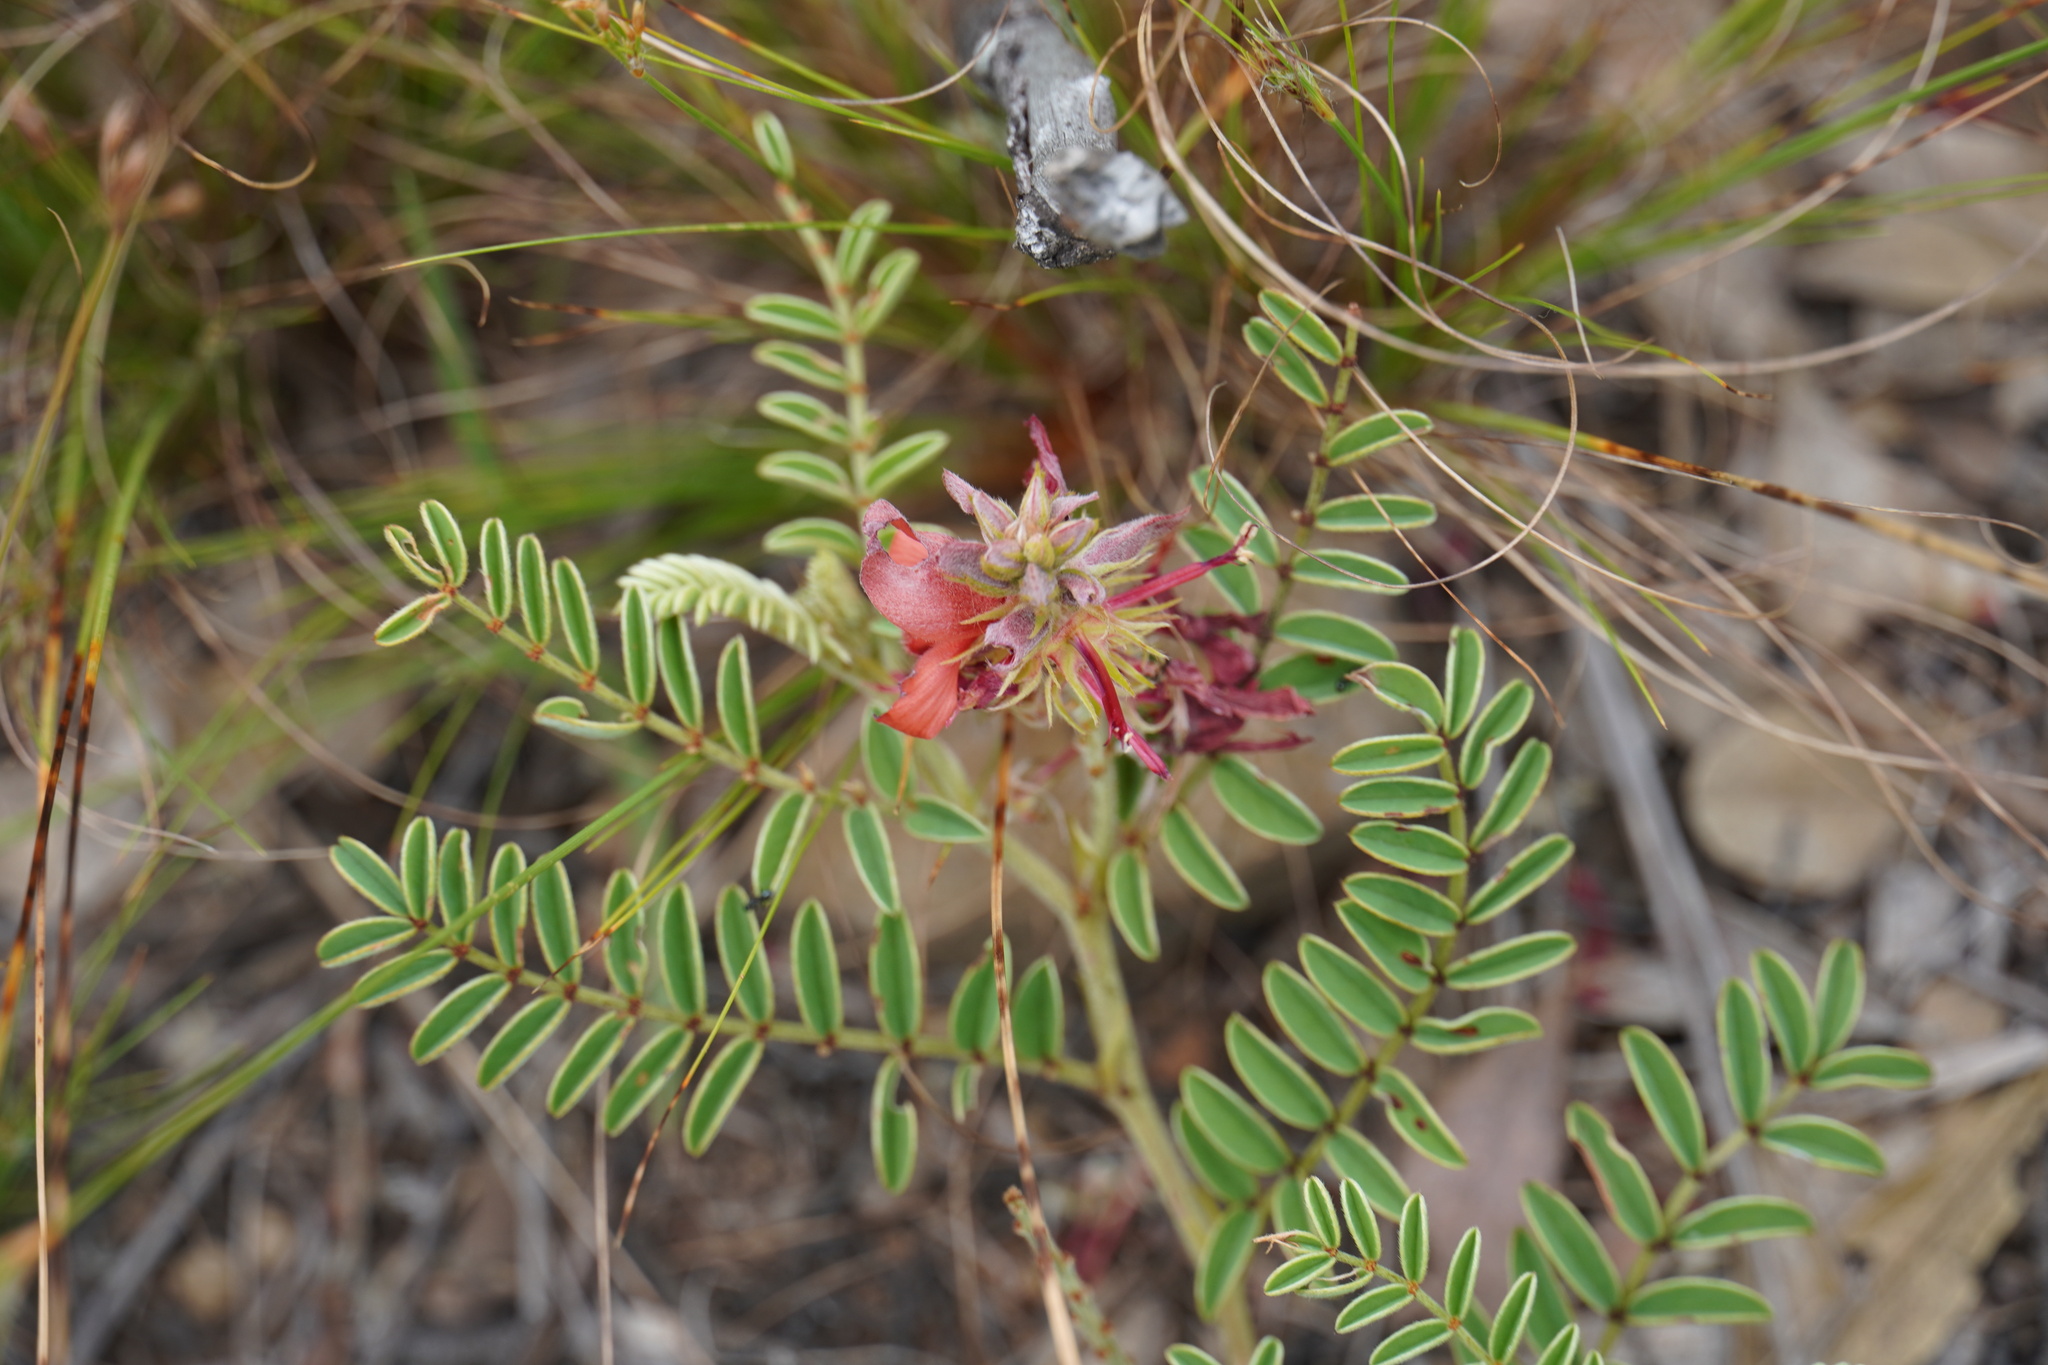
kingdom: Plantae
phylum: Tracheophyta
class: Magnoliopsida
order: Fabales
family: Fabaceae
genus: Indigofera
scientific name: Indigofera oxytropis
